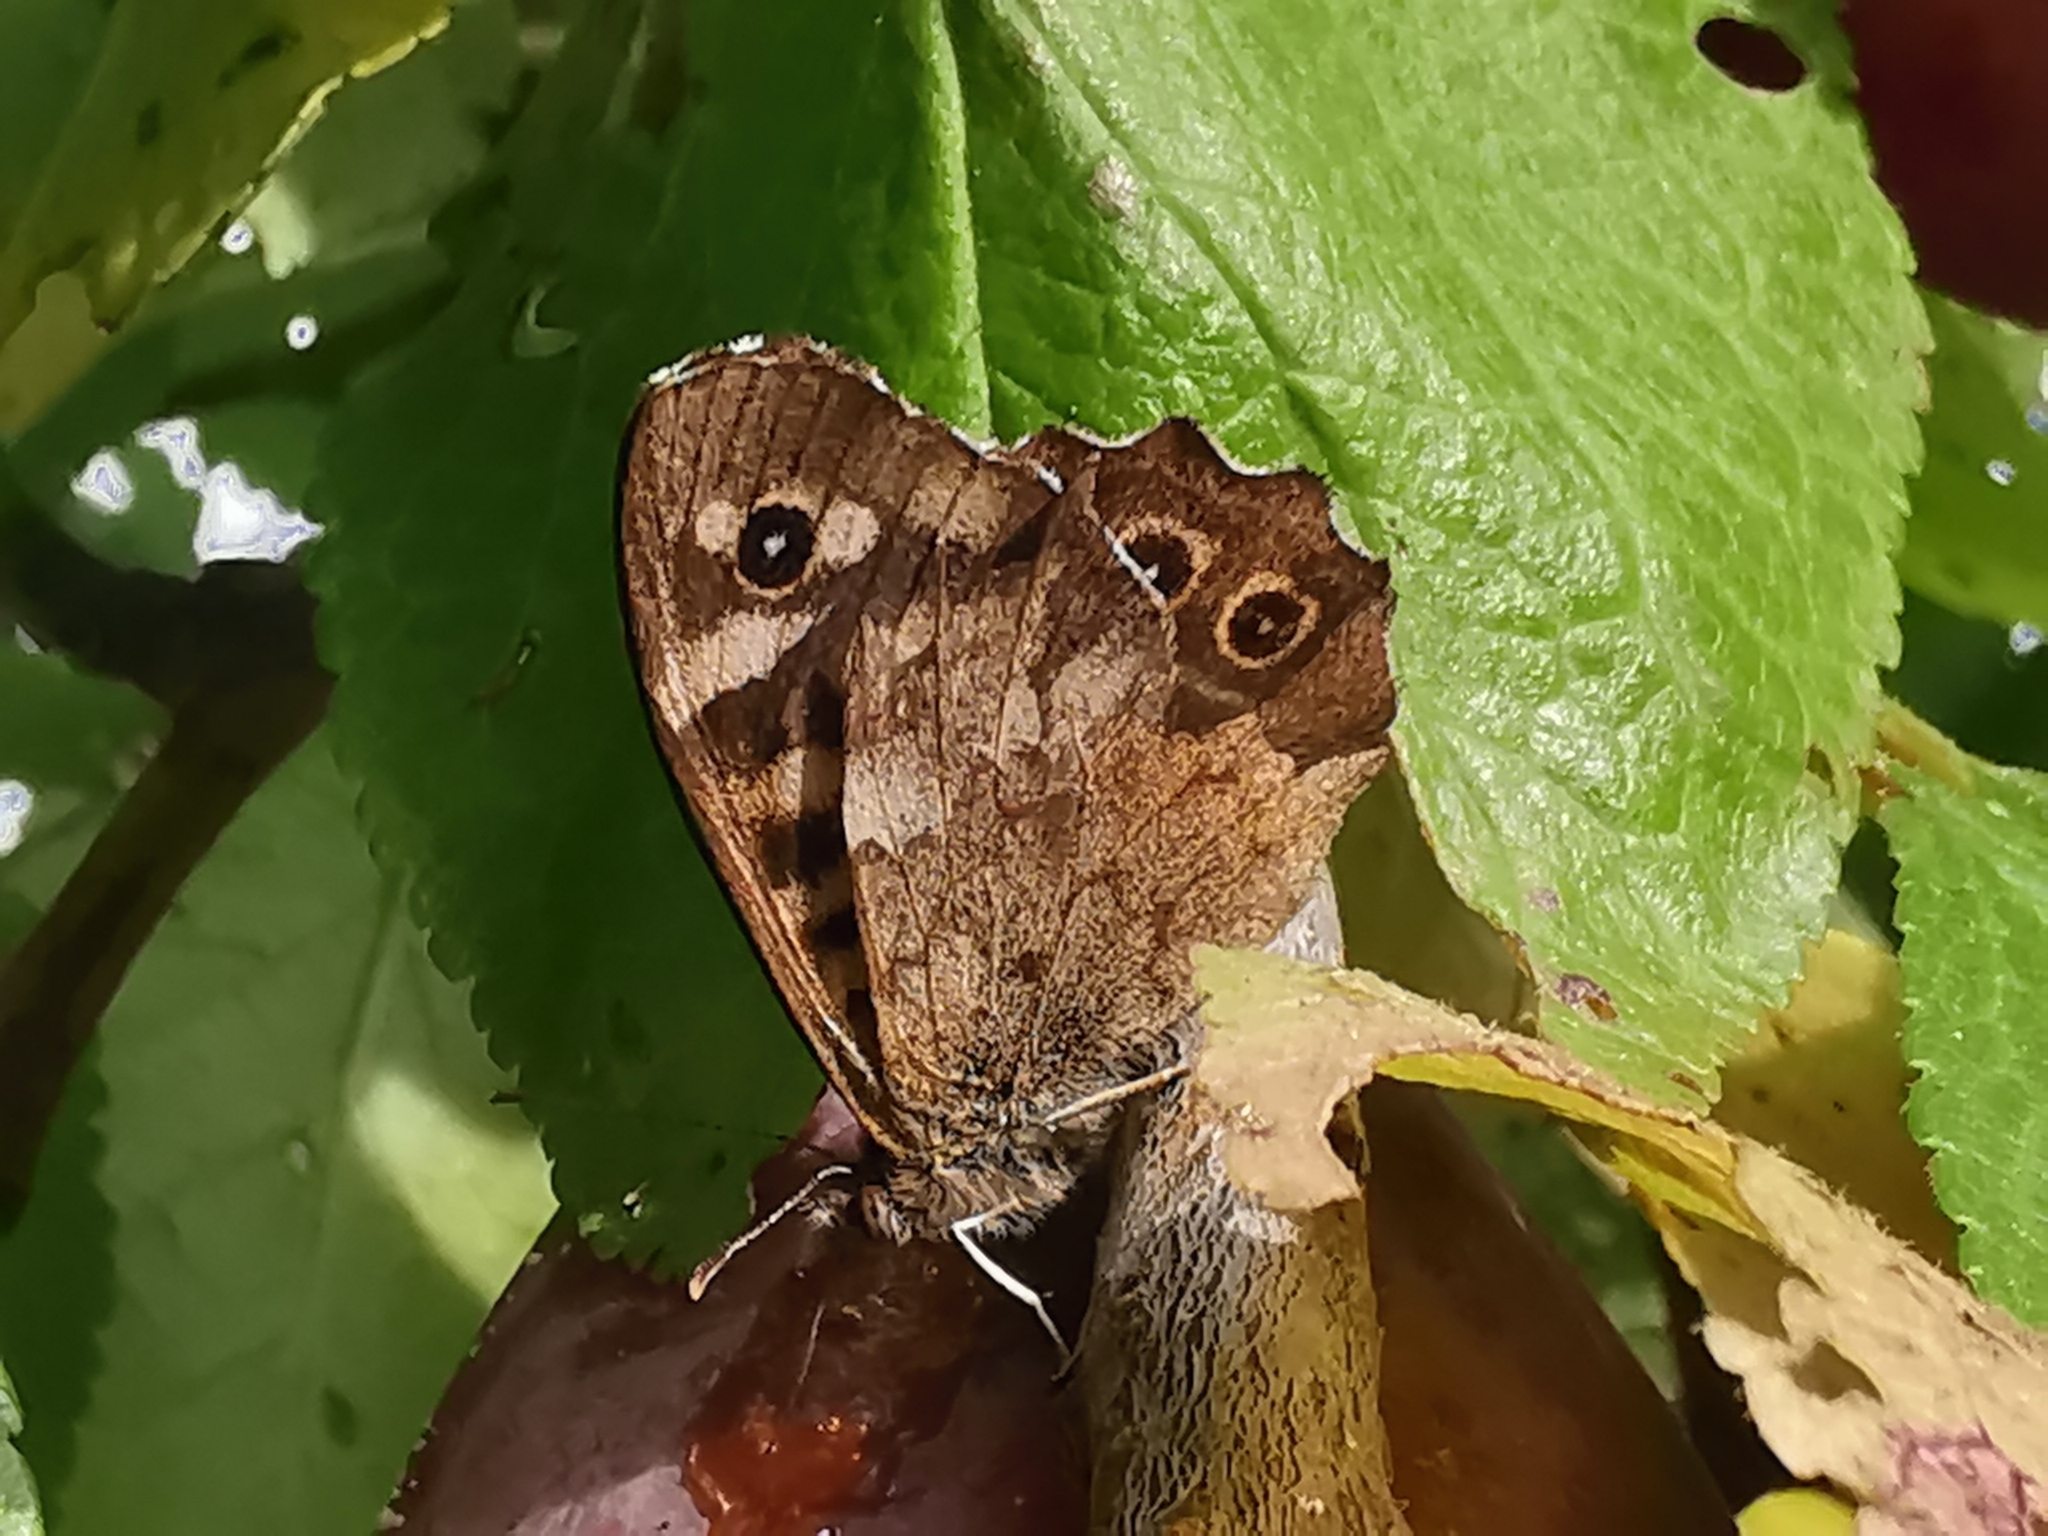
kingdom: Animalia
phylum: Arthropoda
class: Insecta
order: Lepidoptera
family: Nymphalidae
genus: Pararge
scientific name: Pararge aegeria
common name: Speckled wood
